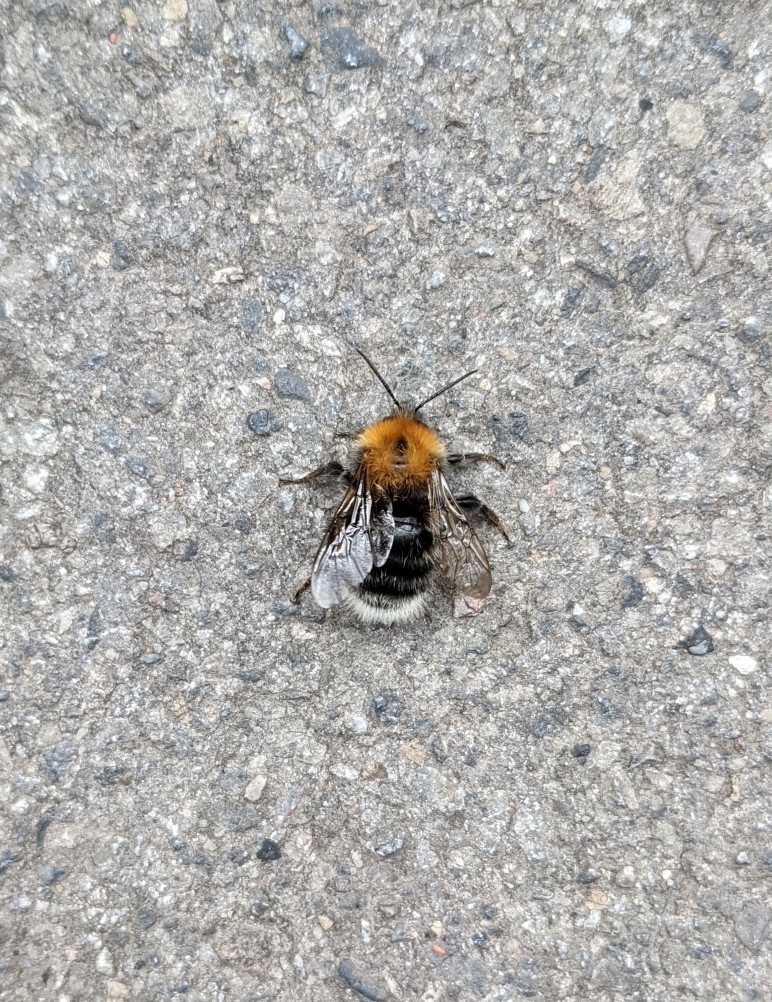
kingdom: Animalia
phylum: Arthropoda
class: Insecta
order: Hymenoptera
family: Apidae
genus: Bombus
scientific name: Bombus hypnorum
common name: New garden bumblebee
